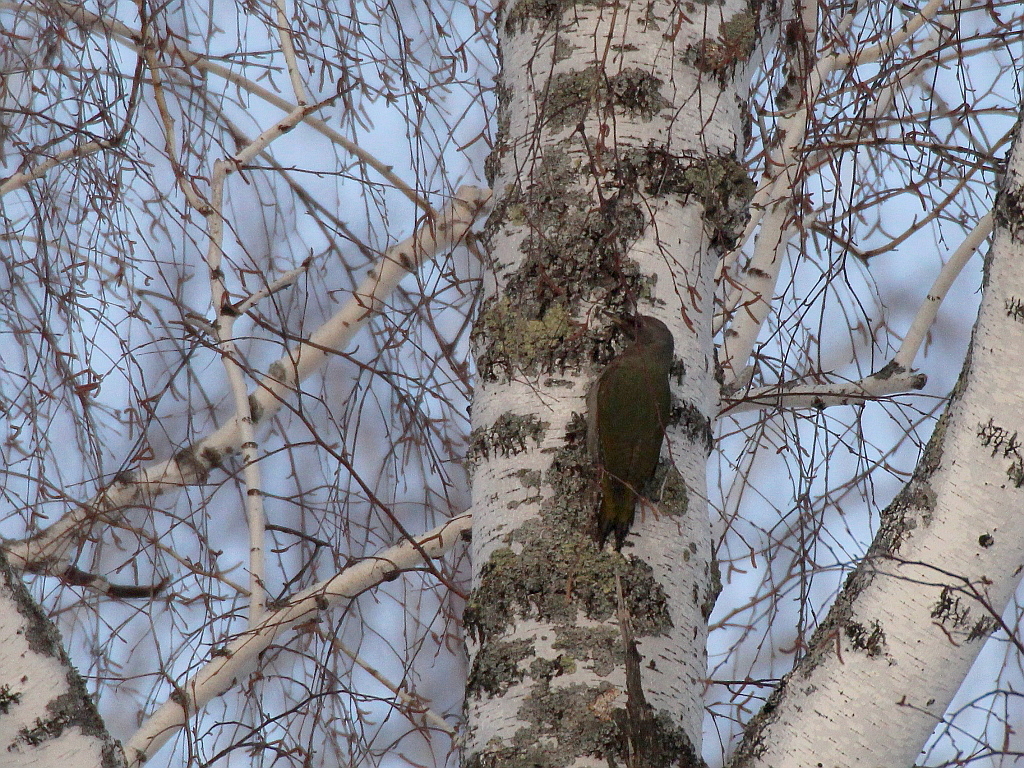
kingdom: Animalia
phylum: Chordata
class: Aves
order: Piciformes
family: Picidae
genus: Picus
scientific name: Picus canus
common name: Grey-headed woodpecker
